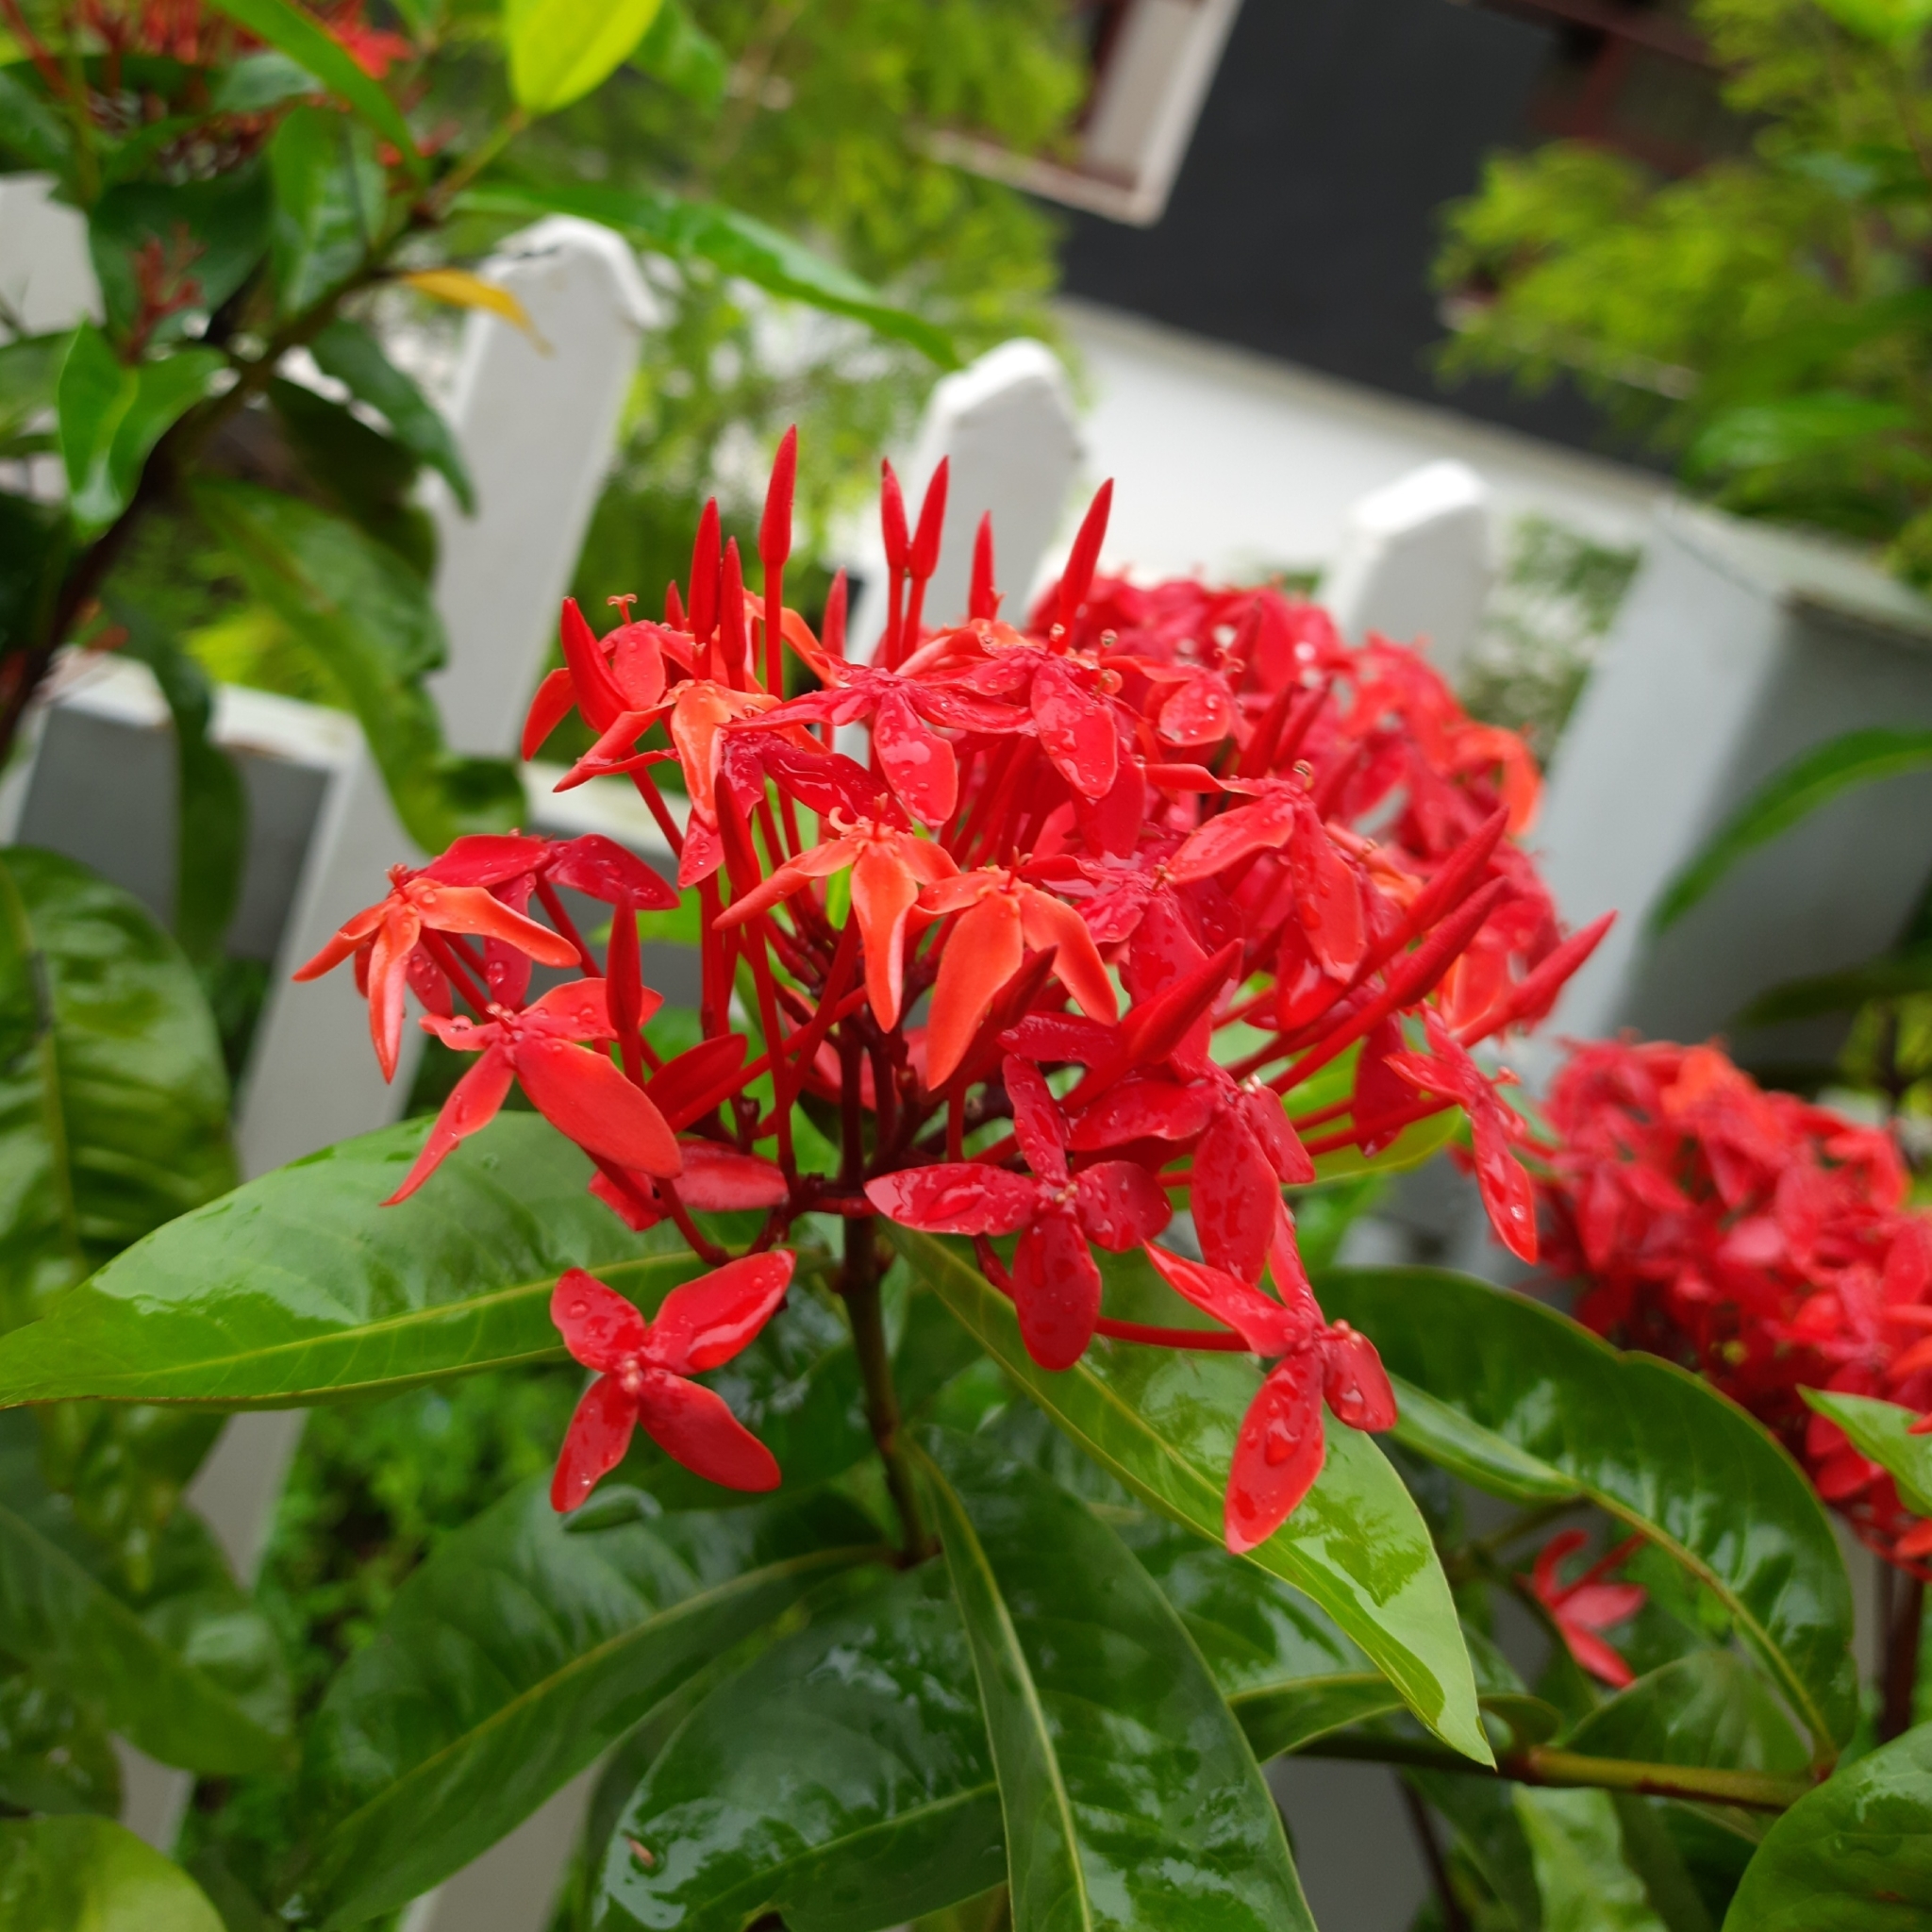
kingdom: Plantae
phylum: Tracheophyta
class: Magnoliopsida
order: Gentianales
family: Rubiaceae
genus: Ixora
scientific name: Ixora coccinea
